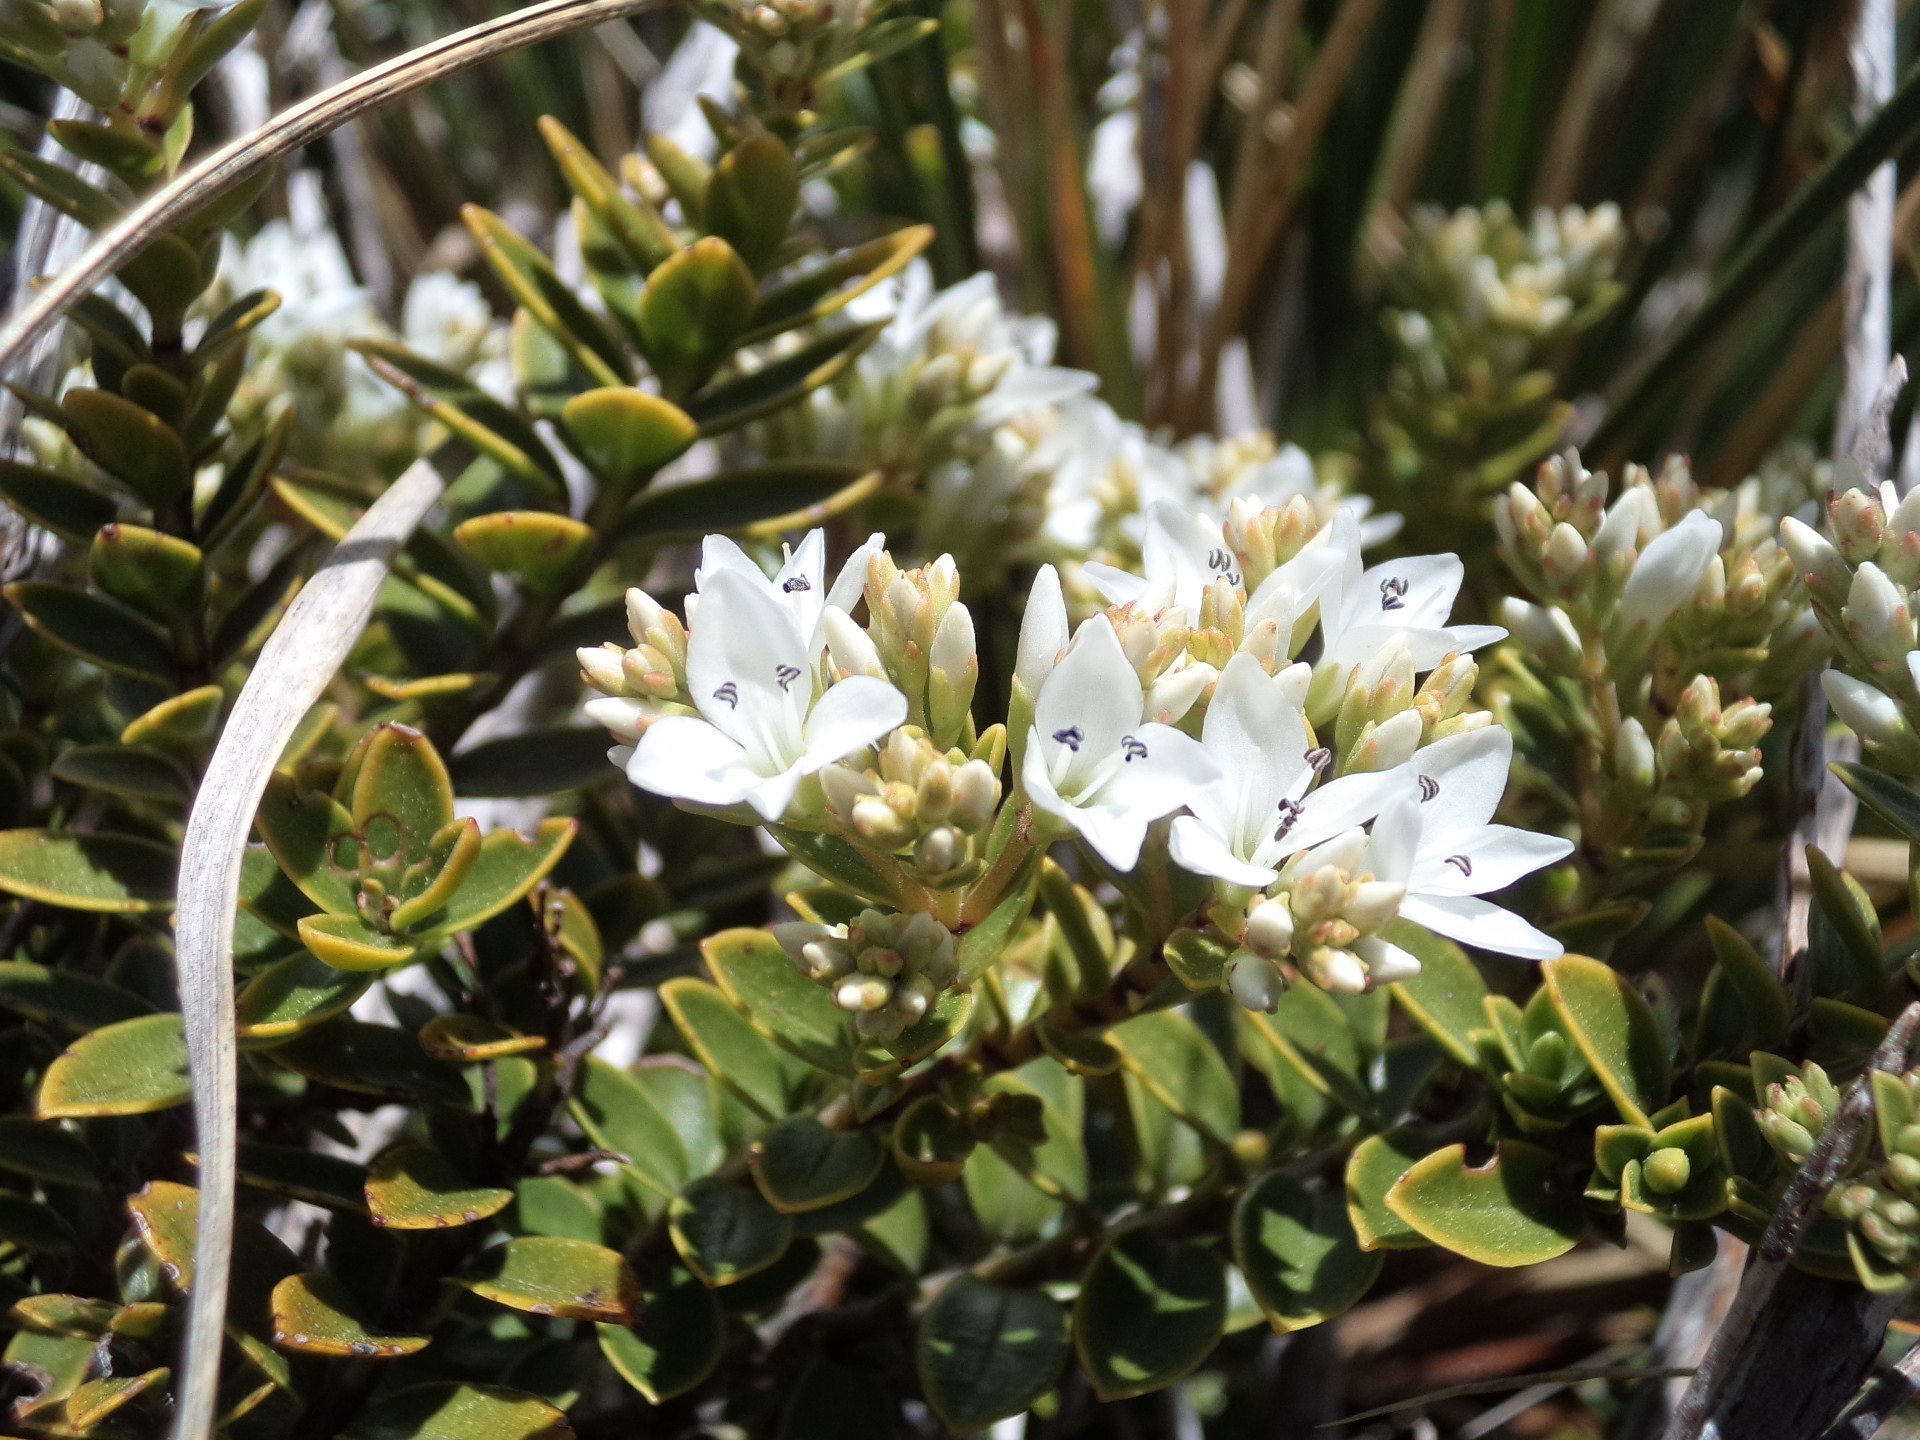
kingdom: Plantae
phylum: Tracheophyta
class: Magnoliopsida
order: Lamiales
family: Plantaginaceae
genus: Veronica
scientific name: Veronica canterburiensis
